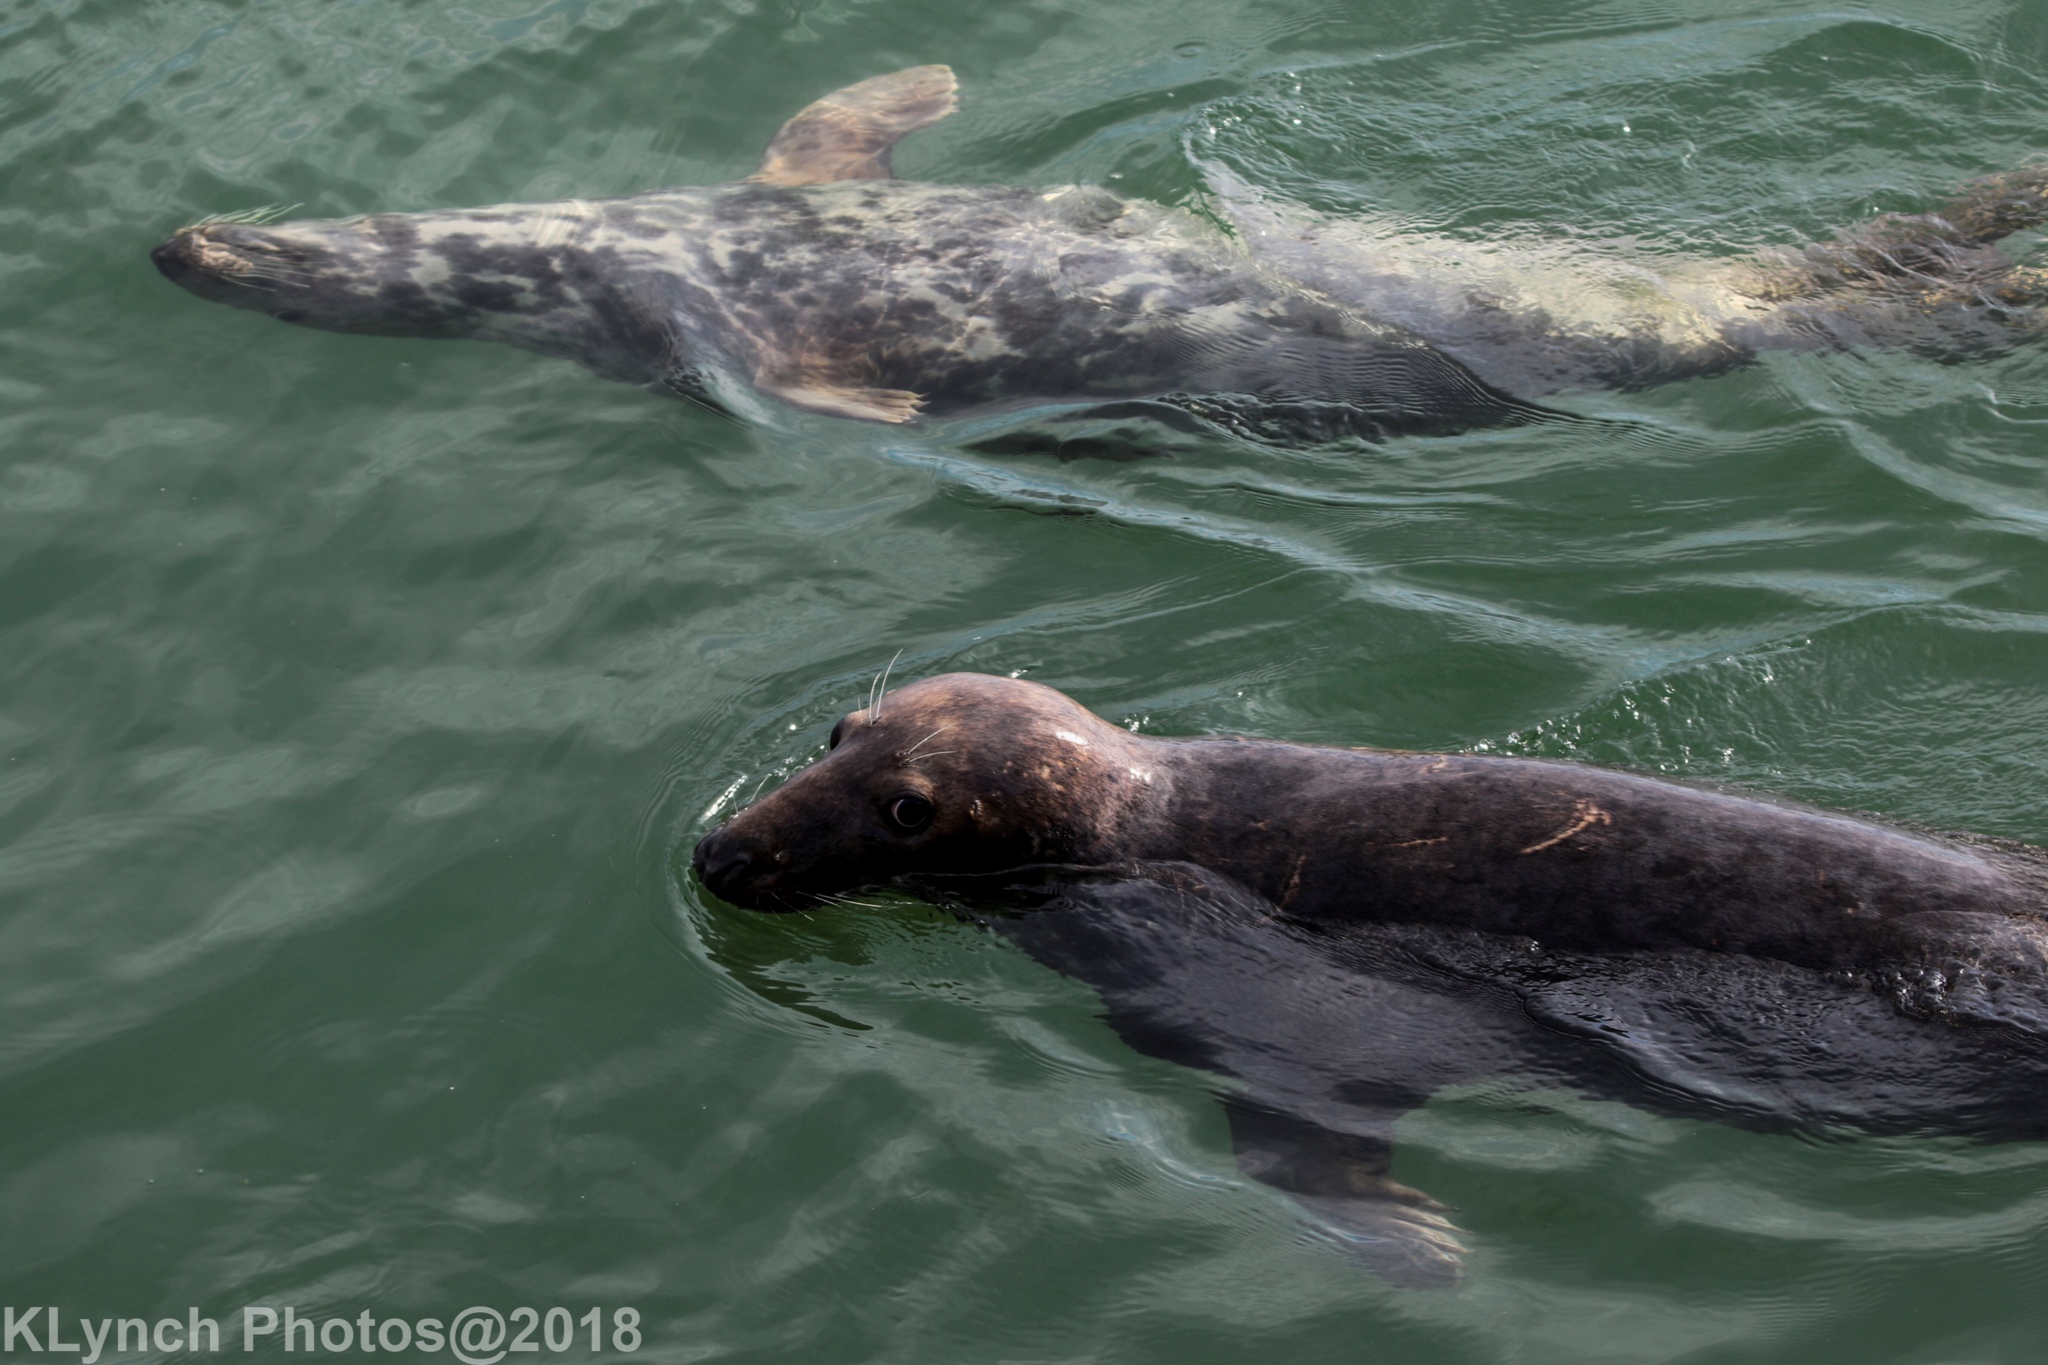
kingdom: Animalia
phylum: Chordata
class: Mammalia
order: Carnivora
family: Phocidae
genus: Halichoerus
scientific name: Halichoerus grypus
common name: Grey seal
